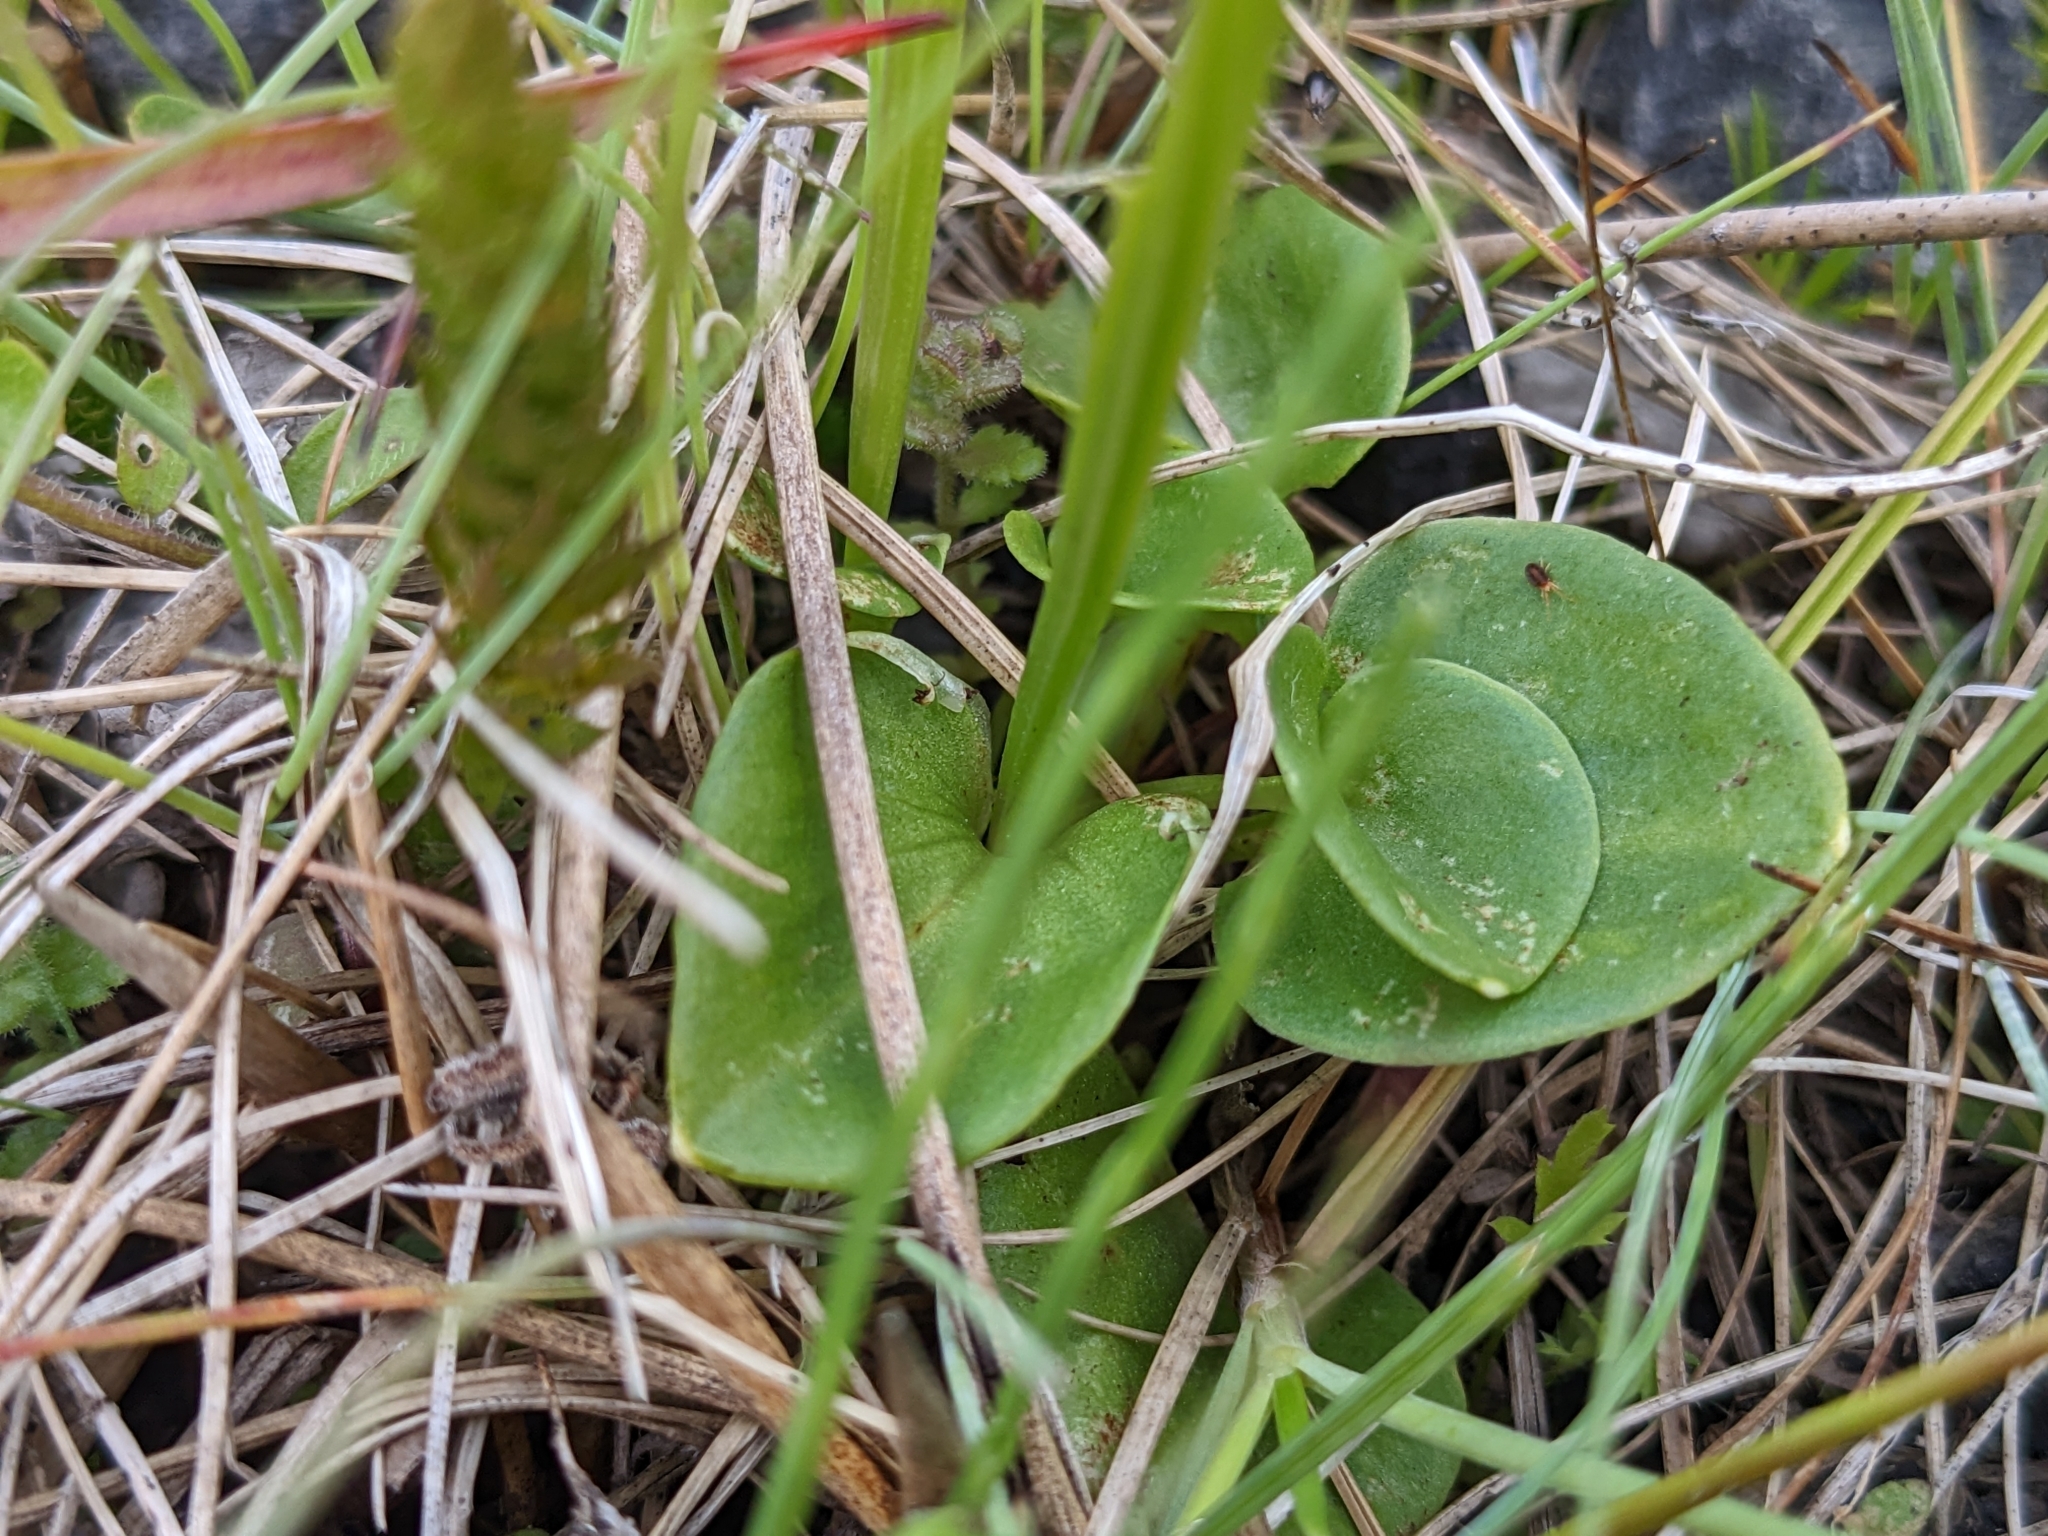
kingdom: Plantae
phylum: Tracheophyta
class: Magnoliopsida
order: Celastrales
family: Parnassiaceae
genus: Parnassia
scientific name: Parnassia palustris
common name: Grass-of-parnassus
